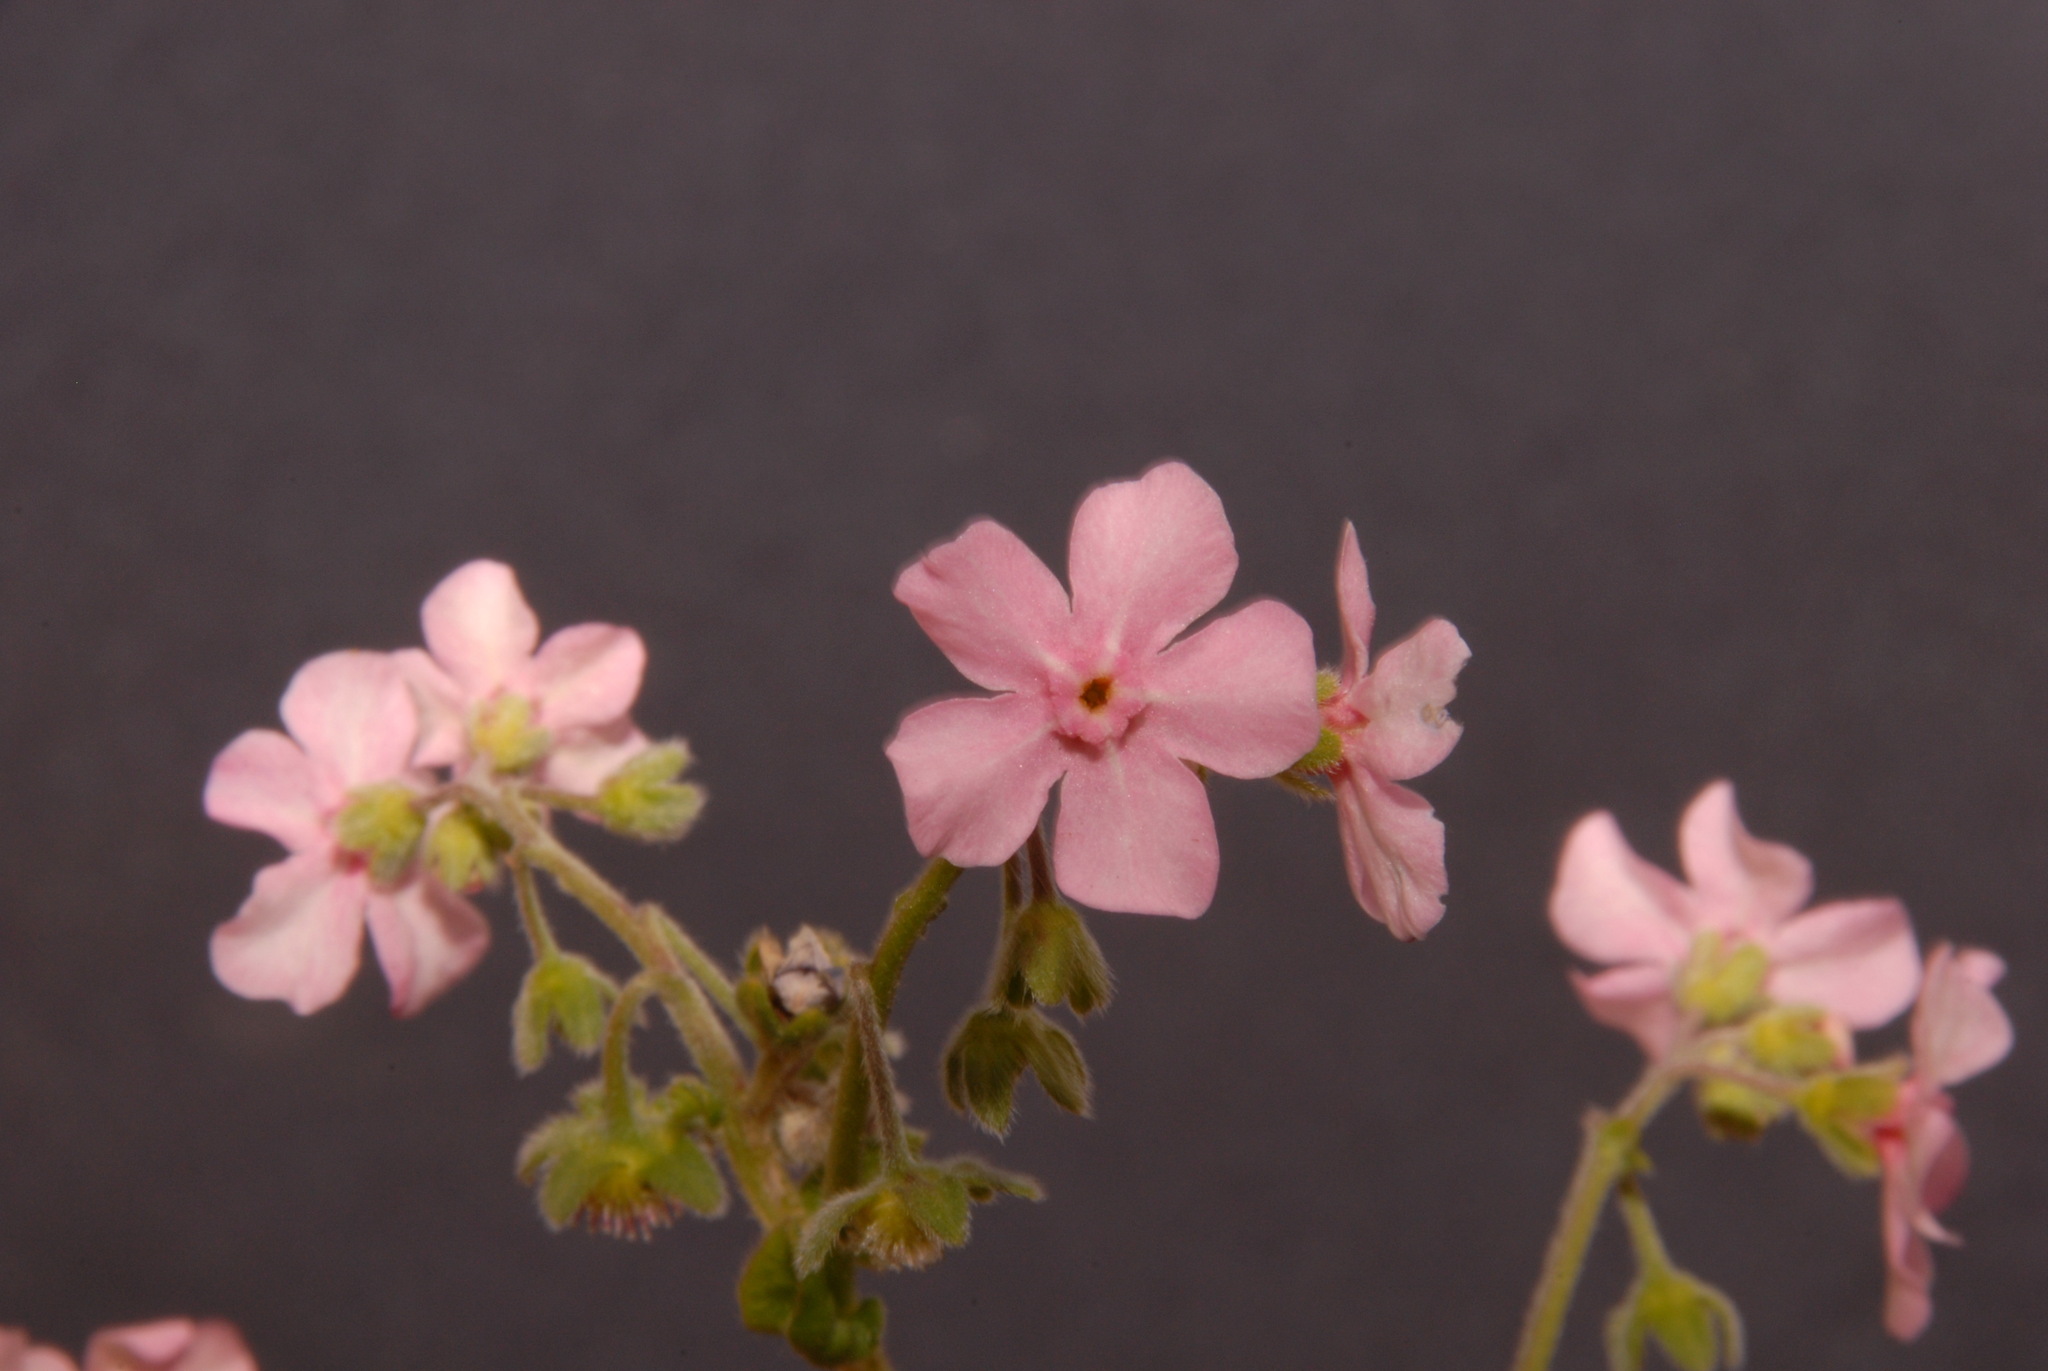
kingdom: Plantae
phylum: Tracheophyta
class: Magnoliopsida
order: Boraginales
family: Boraginaceae
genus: Hackelia
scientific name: Hackelia mundula
